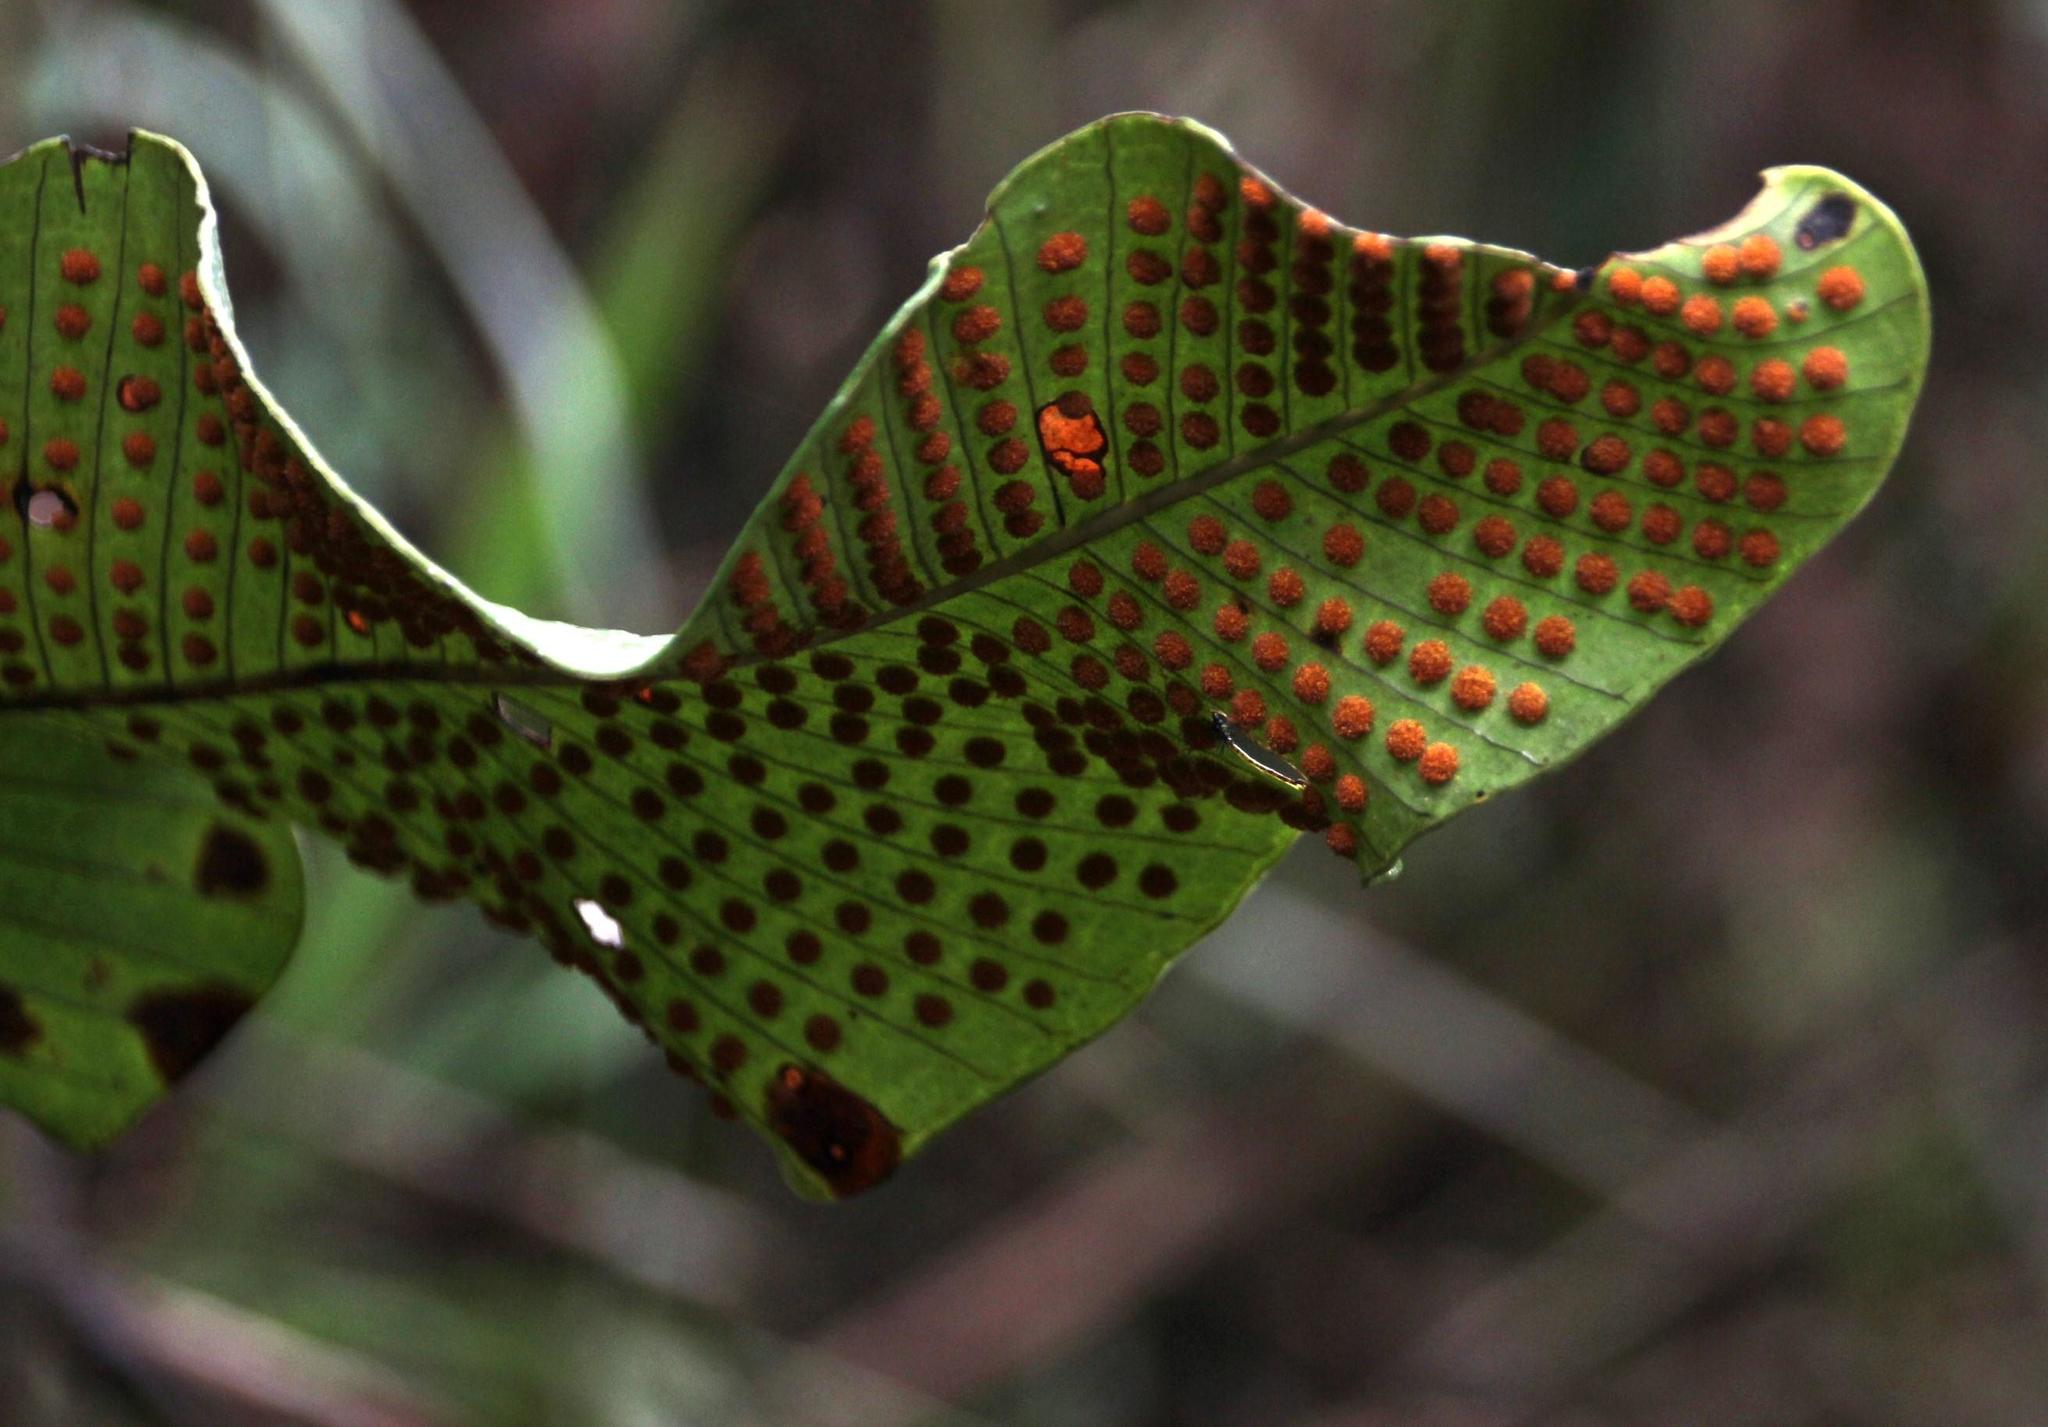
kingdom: Plantae
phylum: Tracheophyta
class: Polypodiopsida
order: Polypodiales
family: Polypodiaceae
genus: Niphidium
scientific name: Niphidium crassifolium
